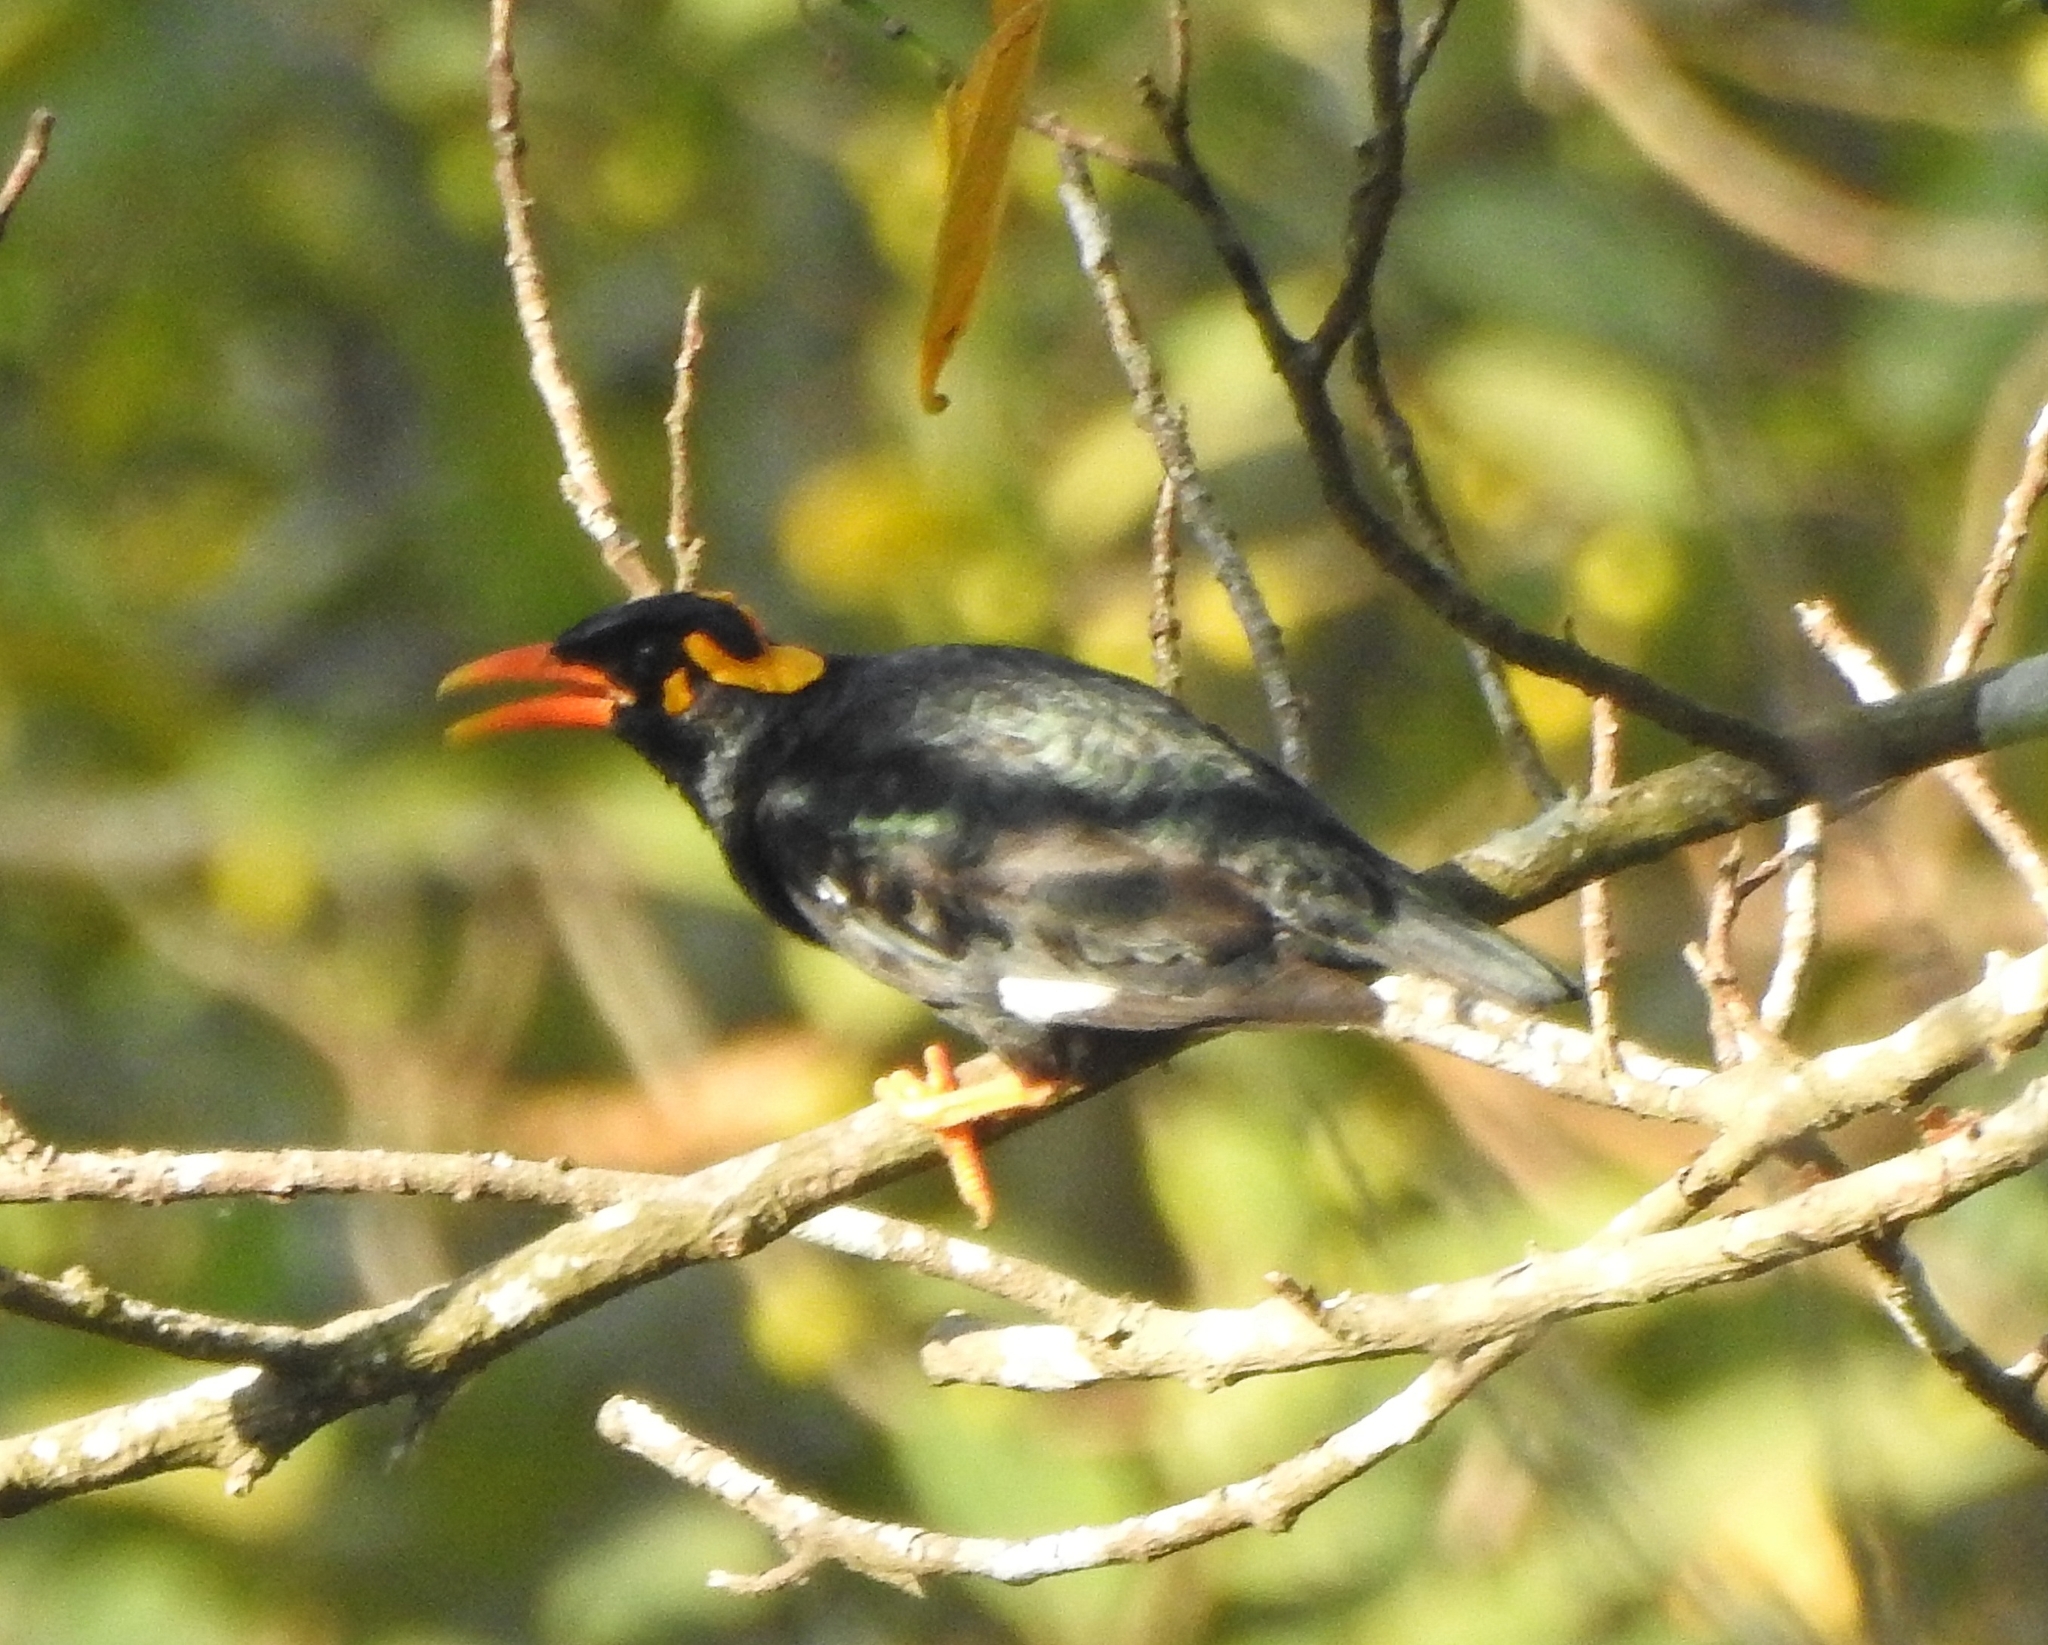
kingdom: Animalia
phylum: Chordata
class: Aves
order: Passeriformes
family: Sturnidae
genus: Gracula
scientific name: Gracula indica
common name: Southern hill myna
